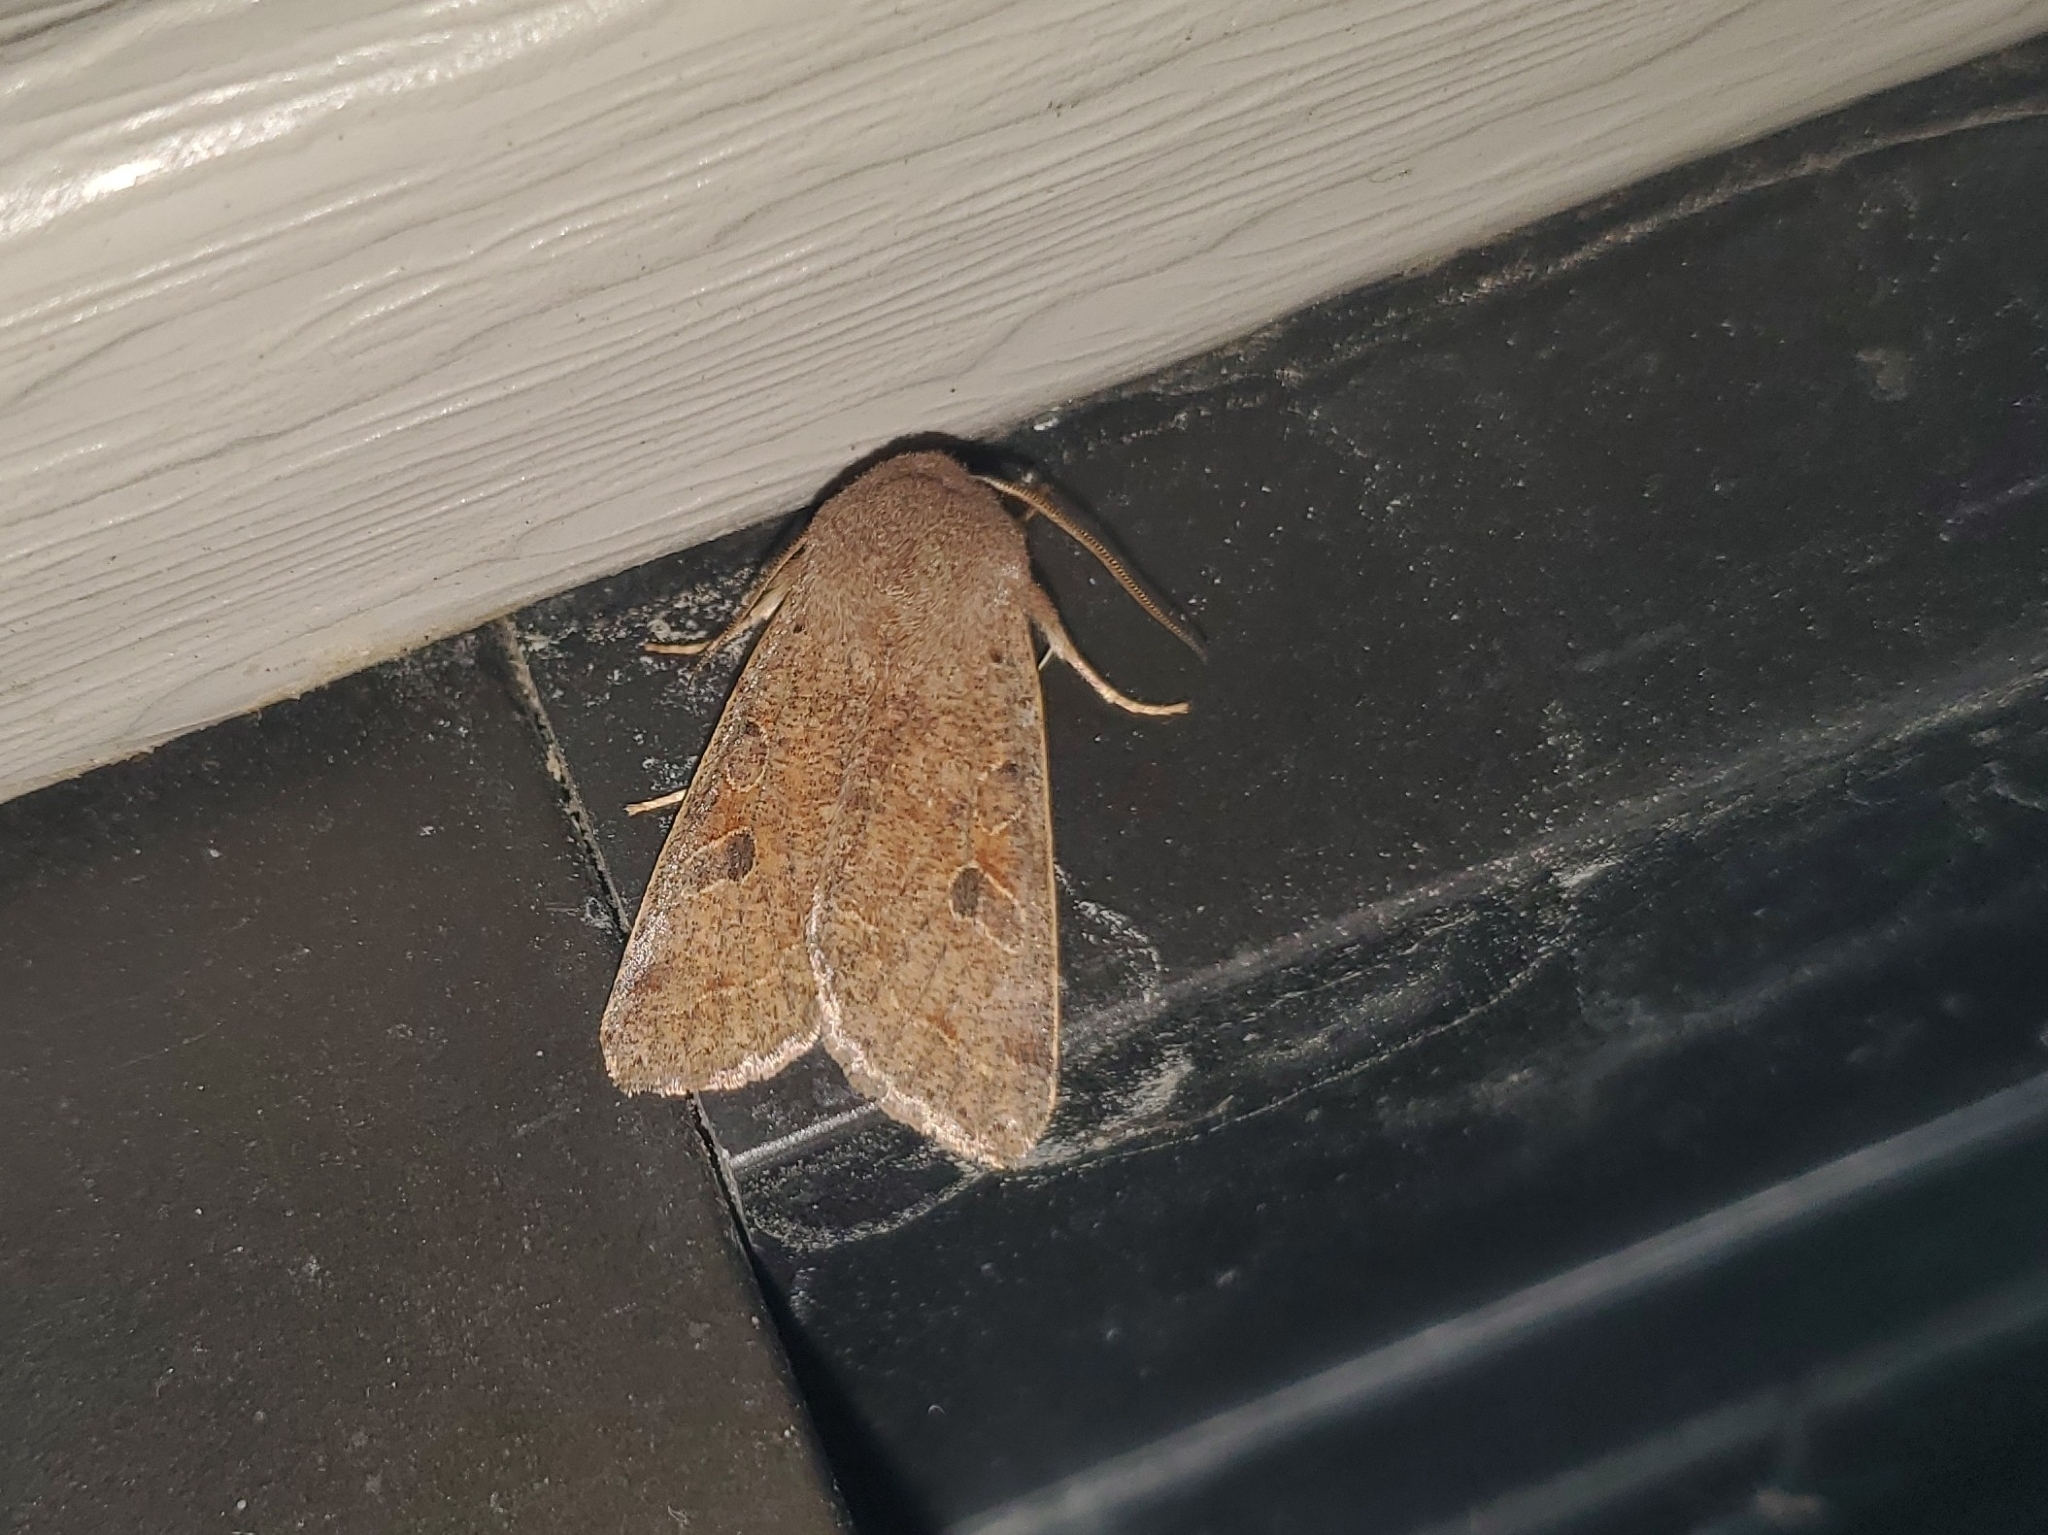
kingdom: Animalia
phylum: Arthropoda
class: Insecta
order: Lepidoptera
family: Noctuidae
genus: Orthosia
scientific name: Orthosia hibisci
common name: Green fruitworm
